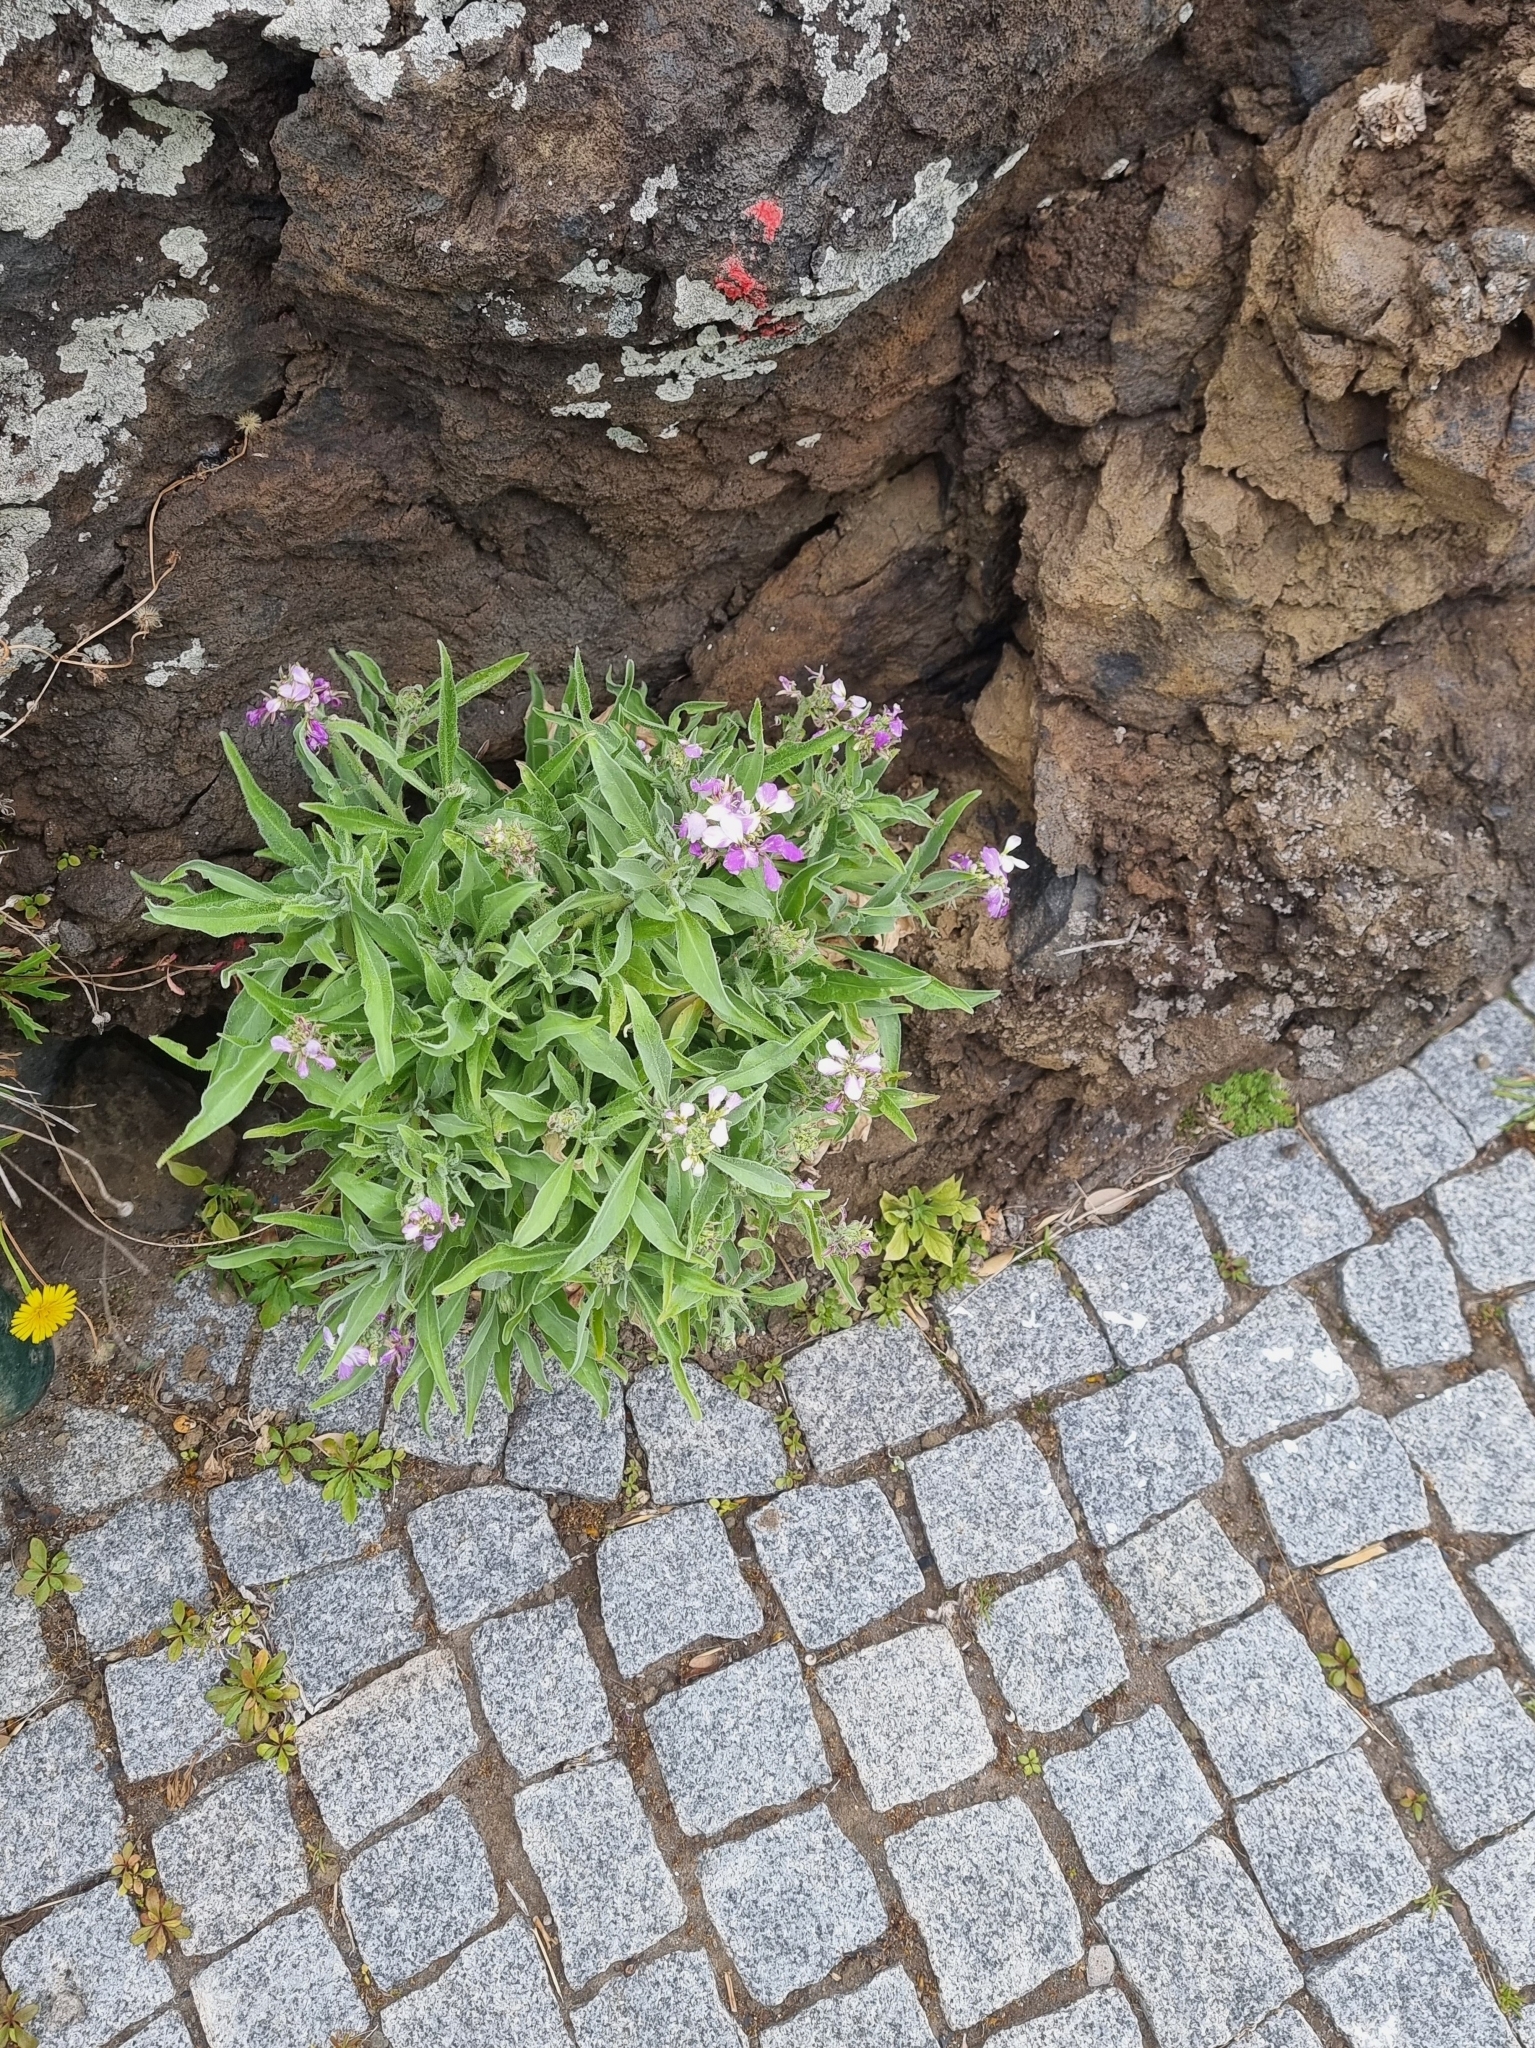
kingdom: Plantae
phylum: Tracheophyta
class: Magnoliopsida
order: Brassicales
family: Brassicaceae
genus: Matthiola
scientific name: Matthiola maderensis
